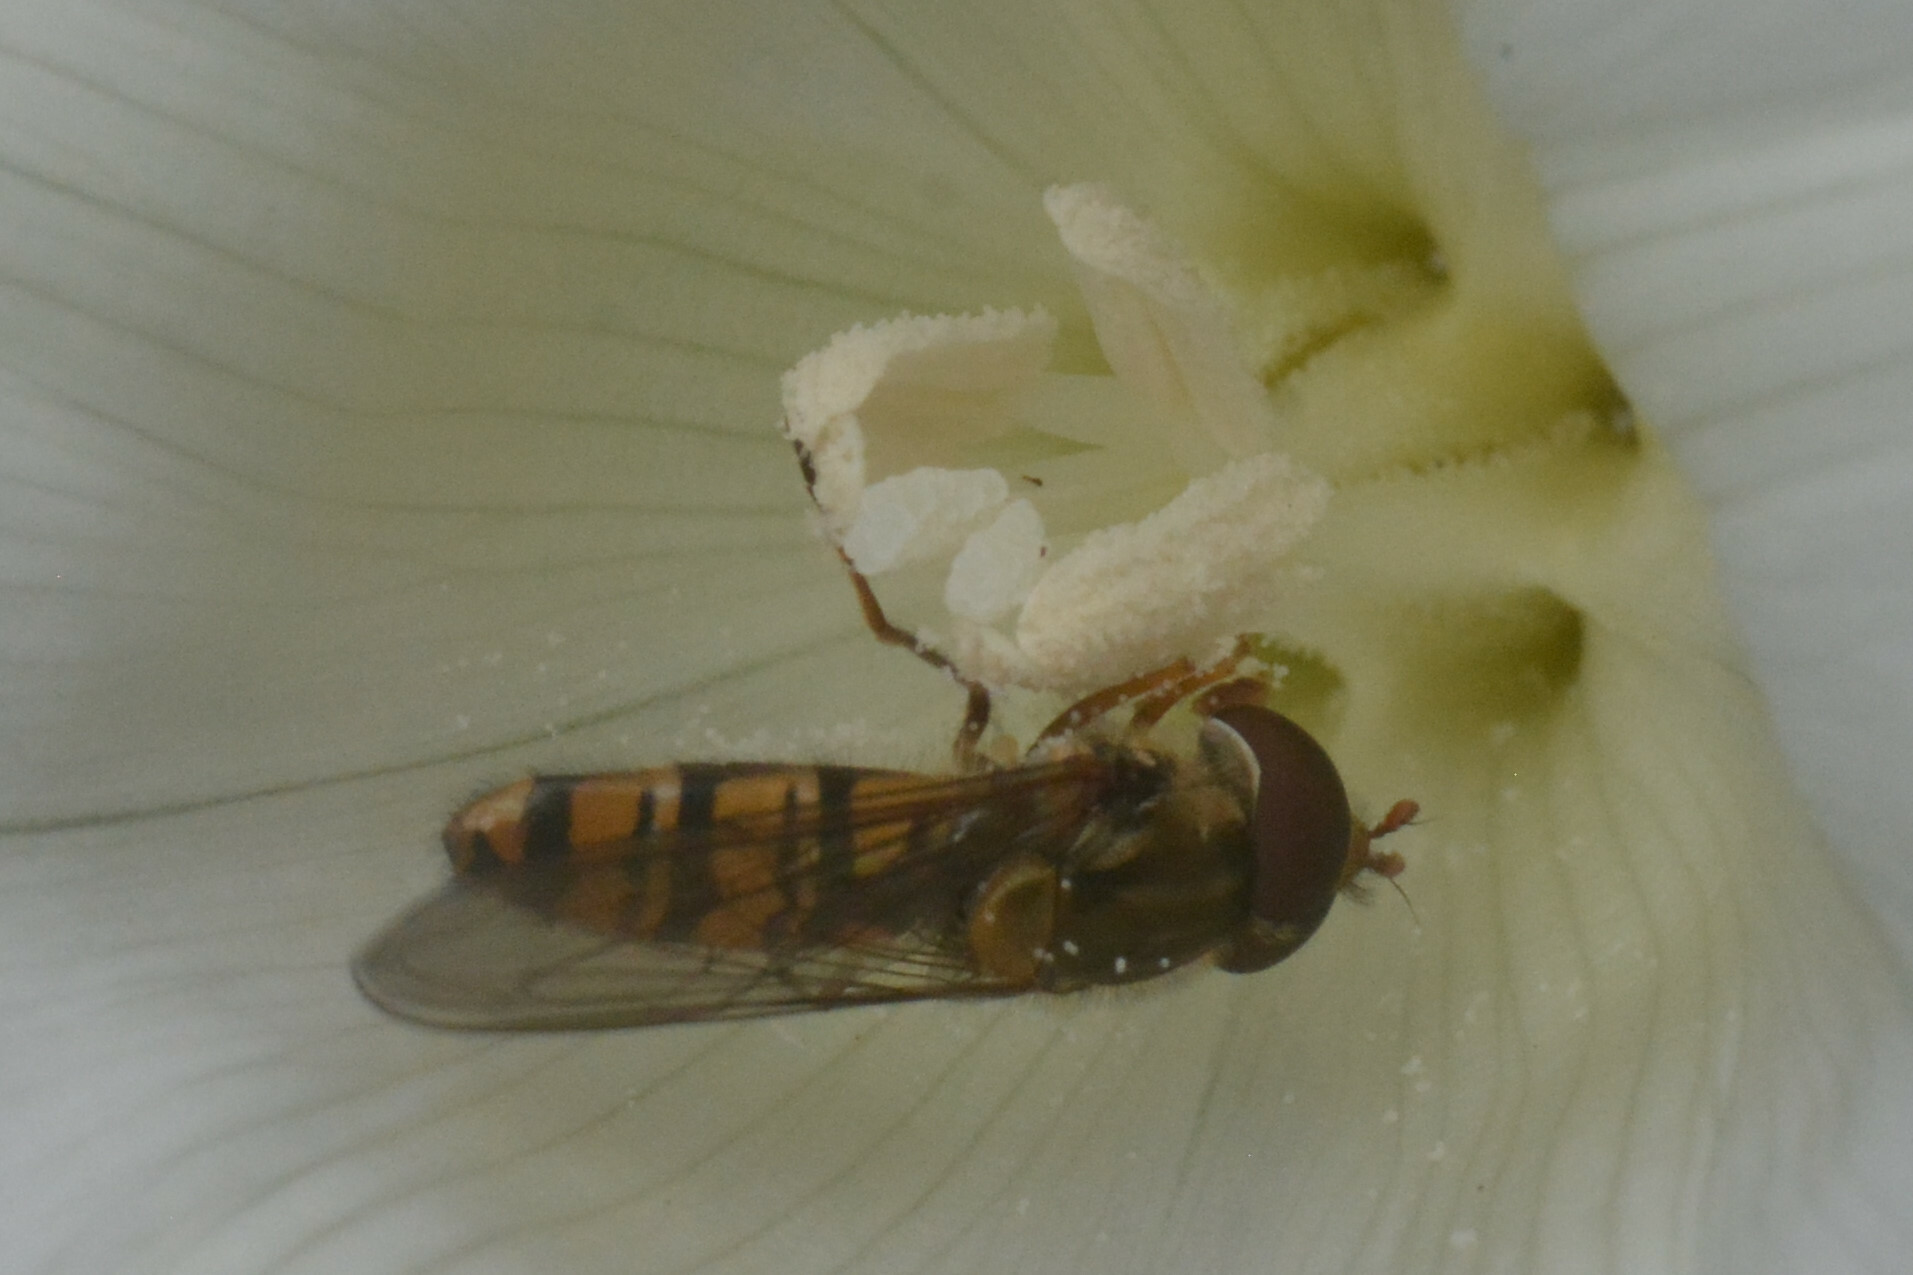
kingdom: Animalia
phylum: Arthropoda
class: Insecta
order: Diptera
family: Syrphidae
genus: Episyrphus
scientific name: Episyrphus balteatus
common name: Marmalade hoverfly
